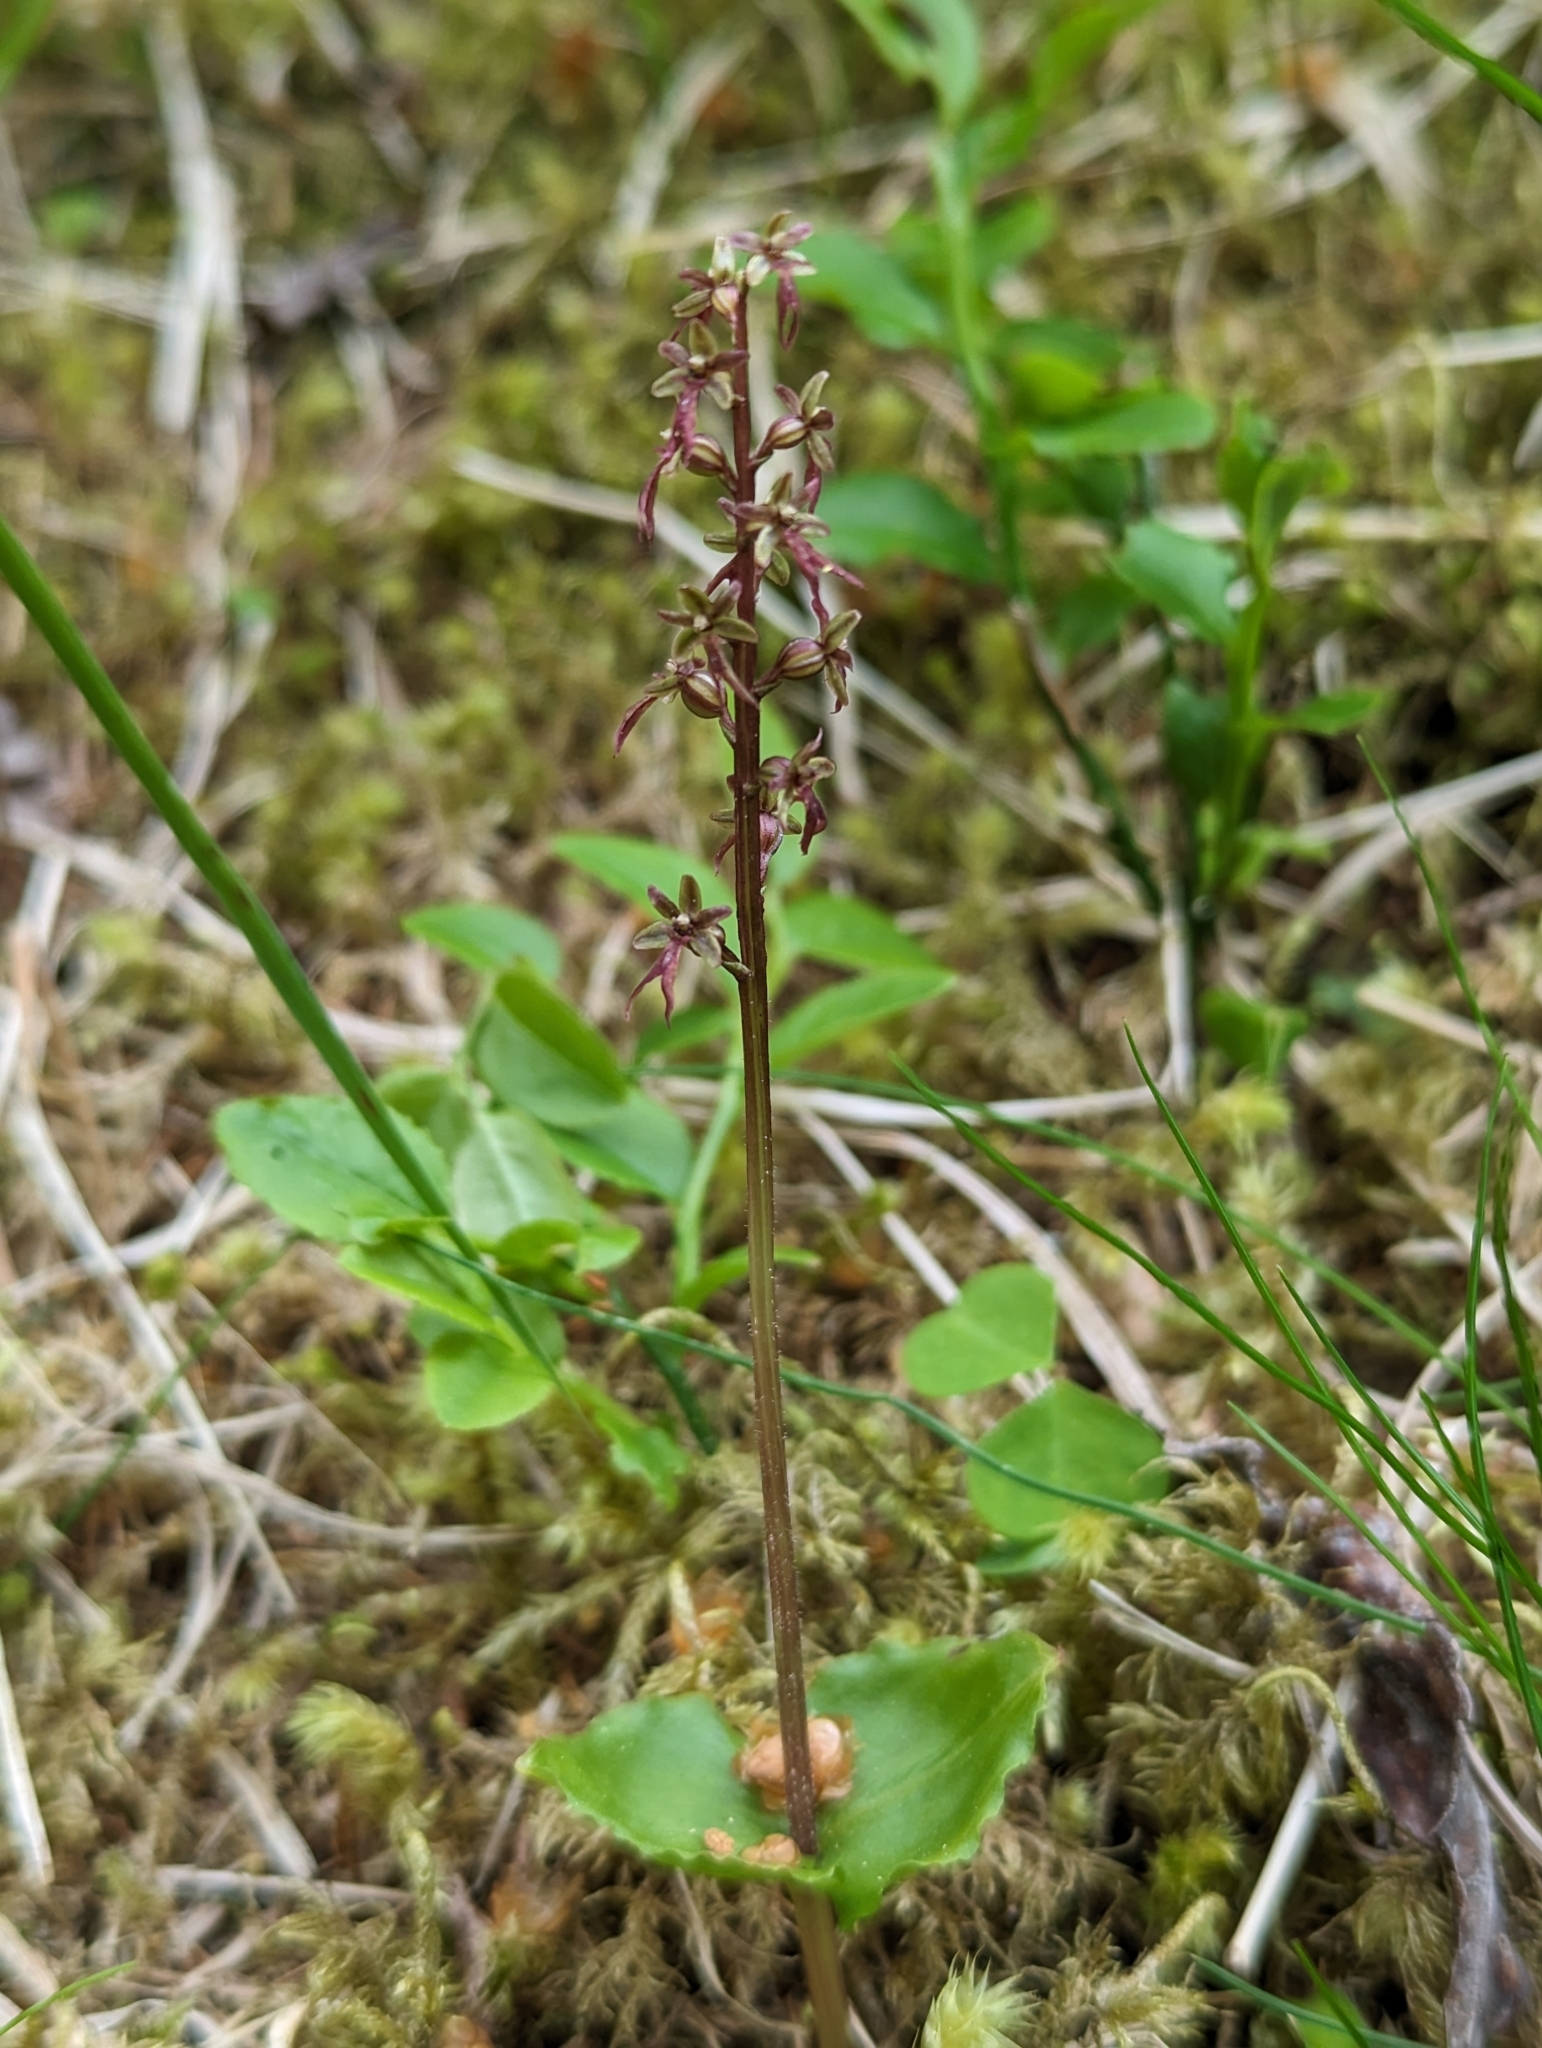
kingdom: Plantae
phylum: Tracheophyta
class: Liliopsida
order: Asparagales
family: Orchidaceae
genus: Neottia
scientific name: Neottia cordata
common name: Lesser twayblade
